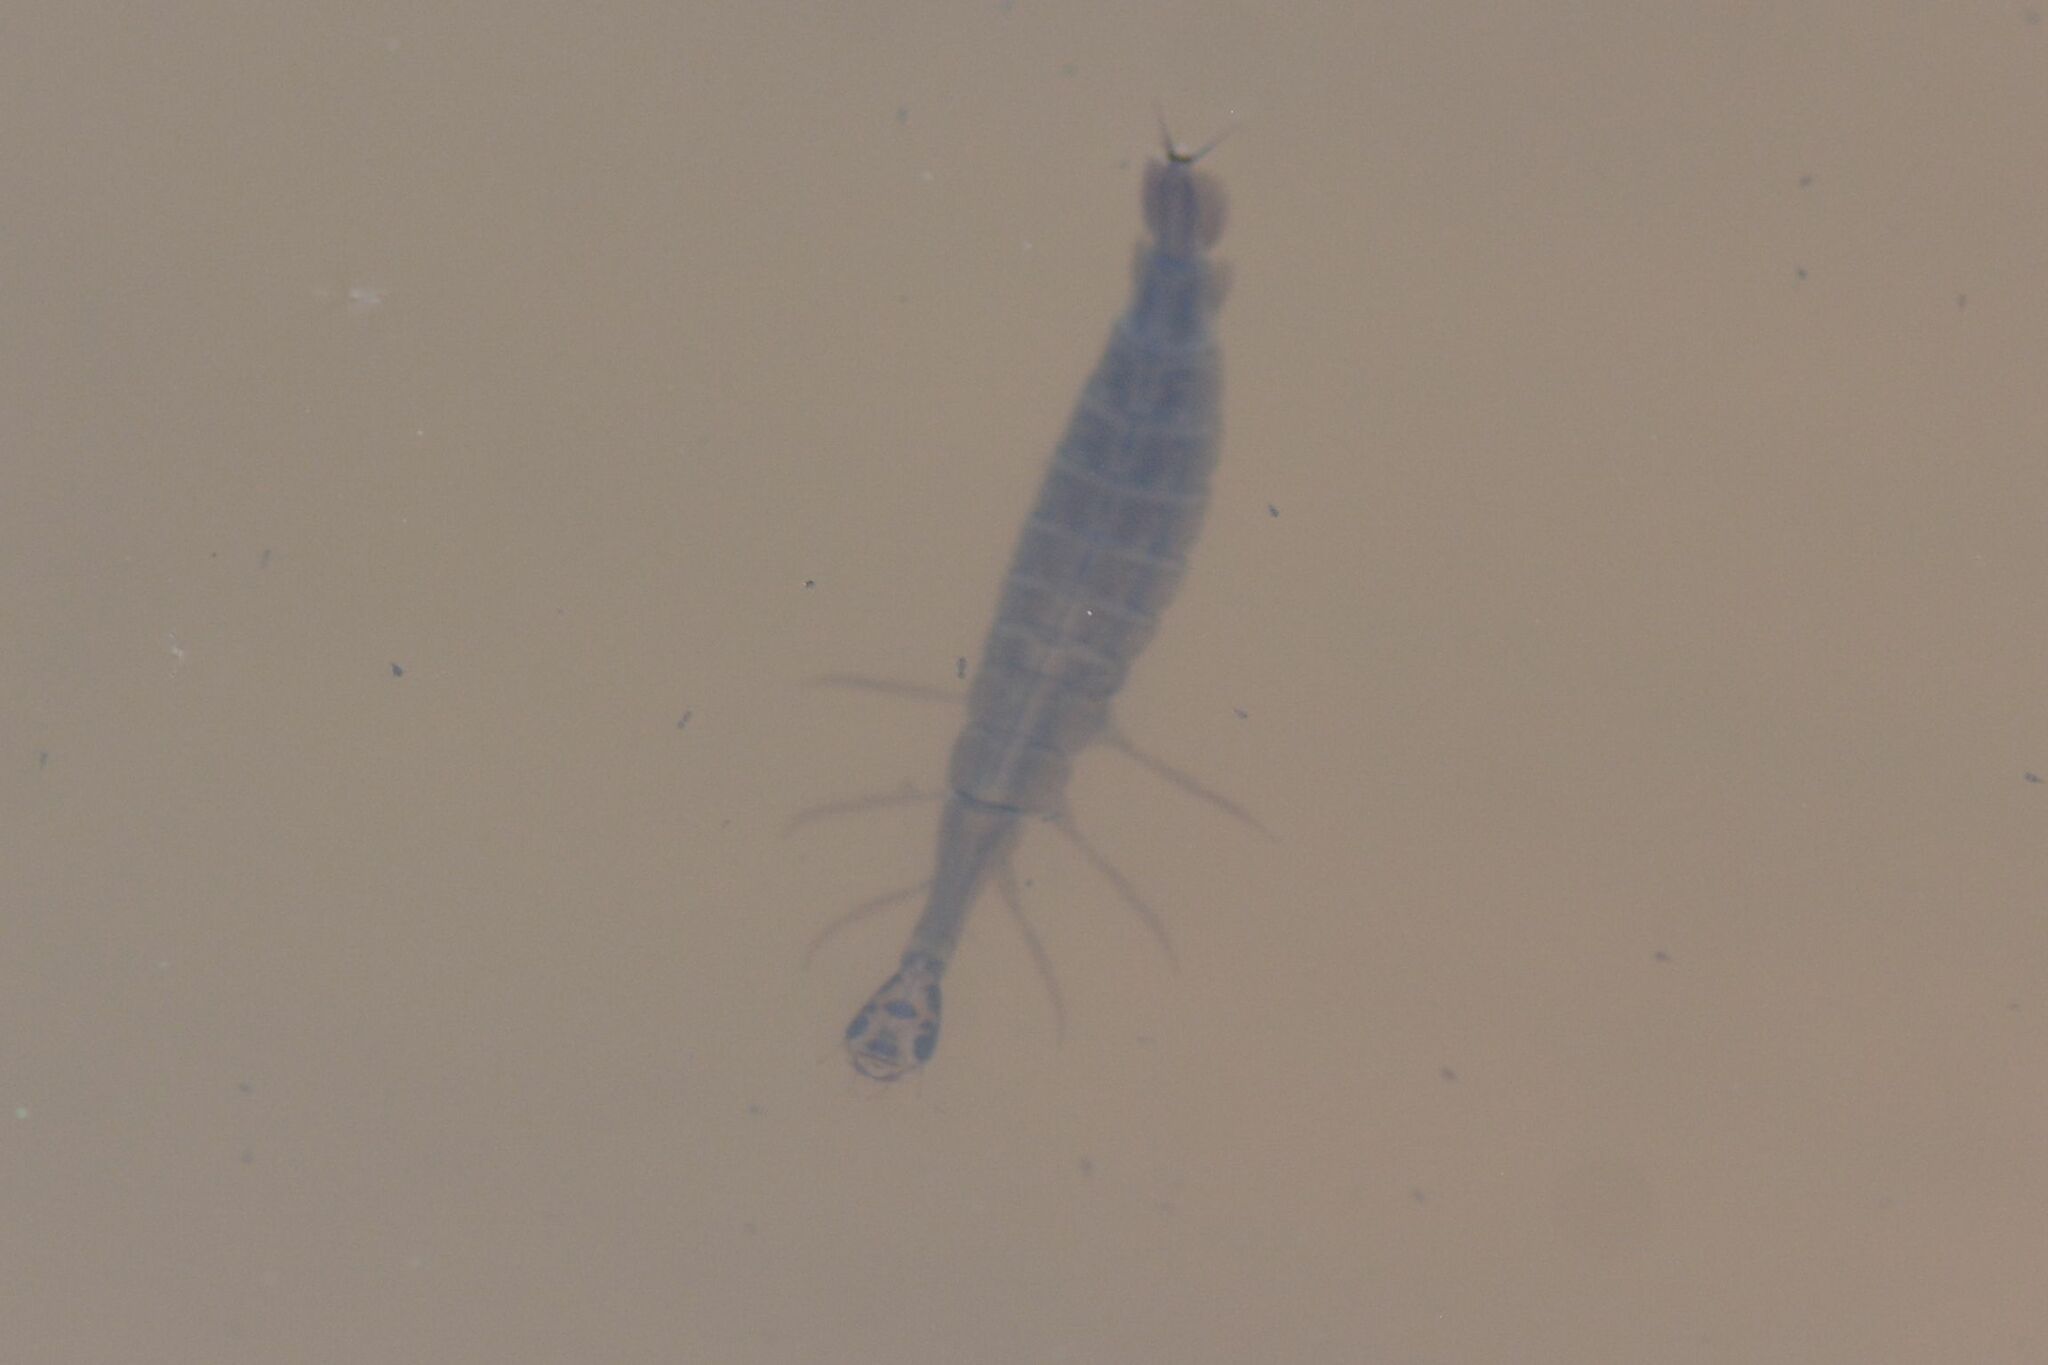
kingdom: Animalia
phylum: Arthropoda
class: Insecta
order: Coleoptera
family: Dytiscidae
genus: Acilius
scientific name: Acilius sulcatus
